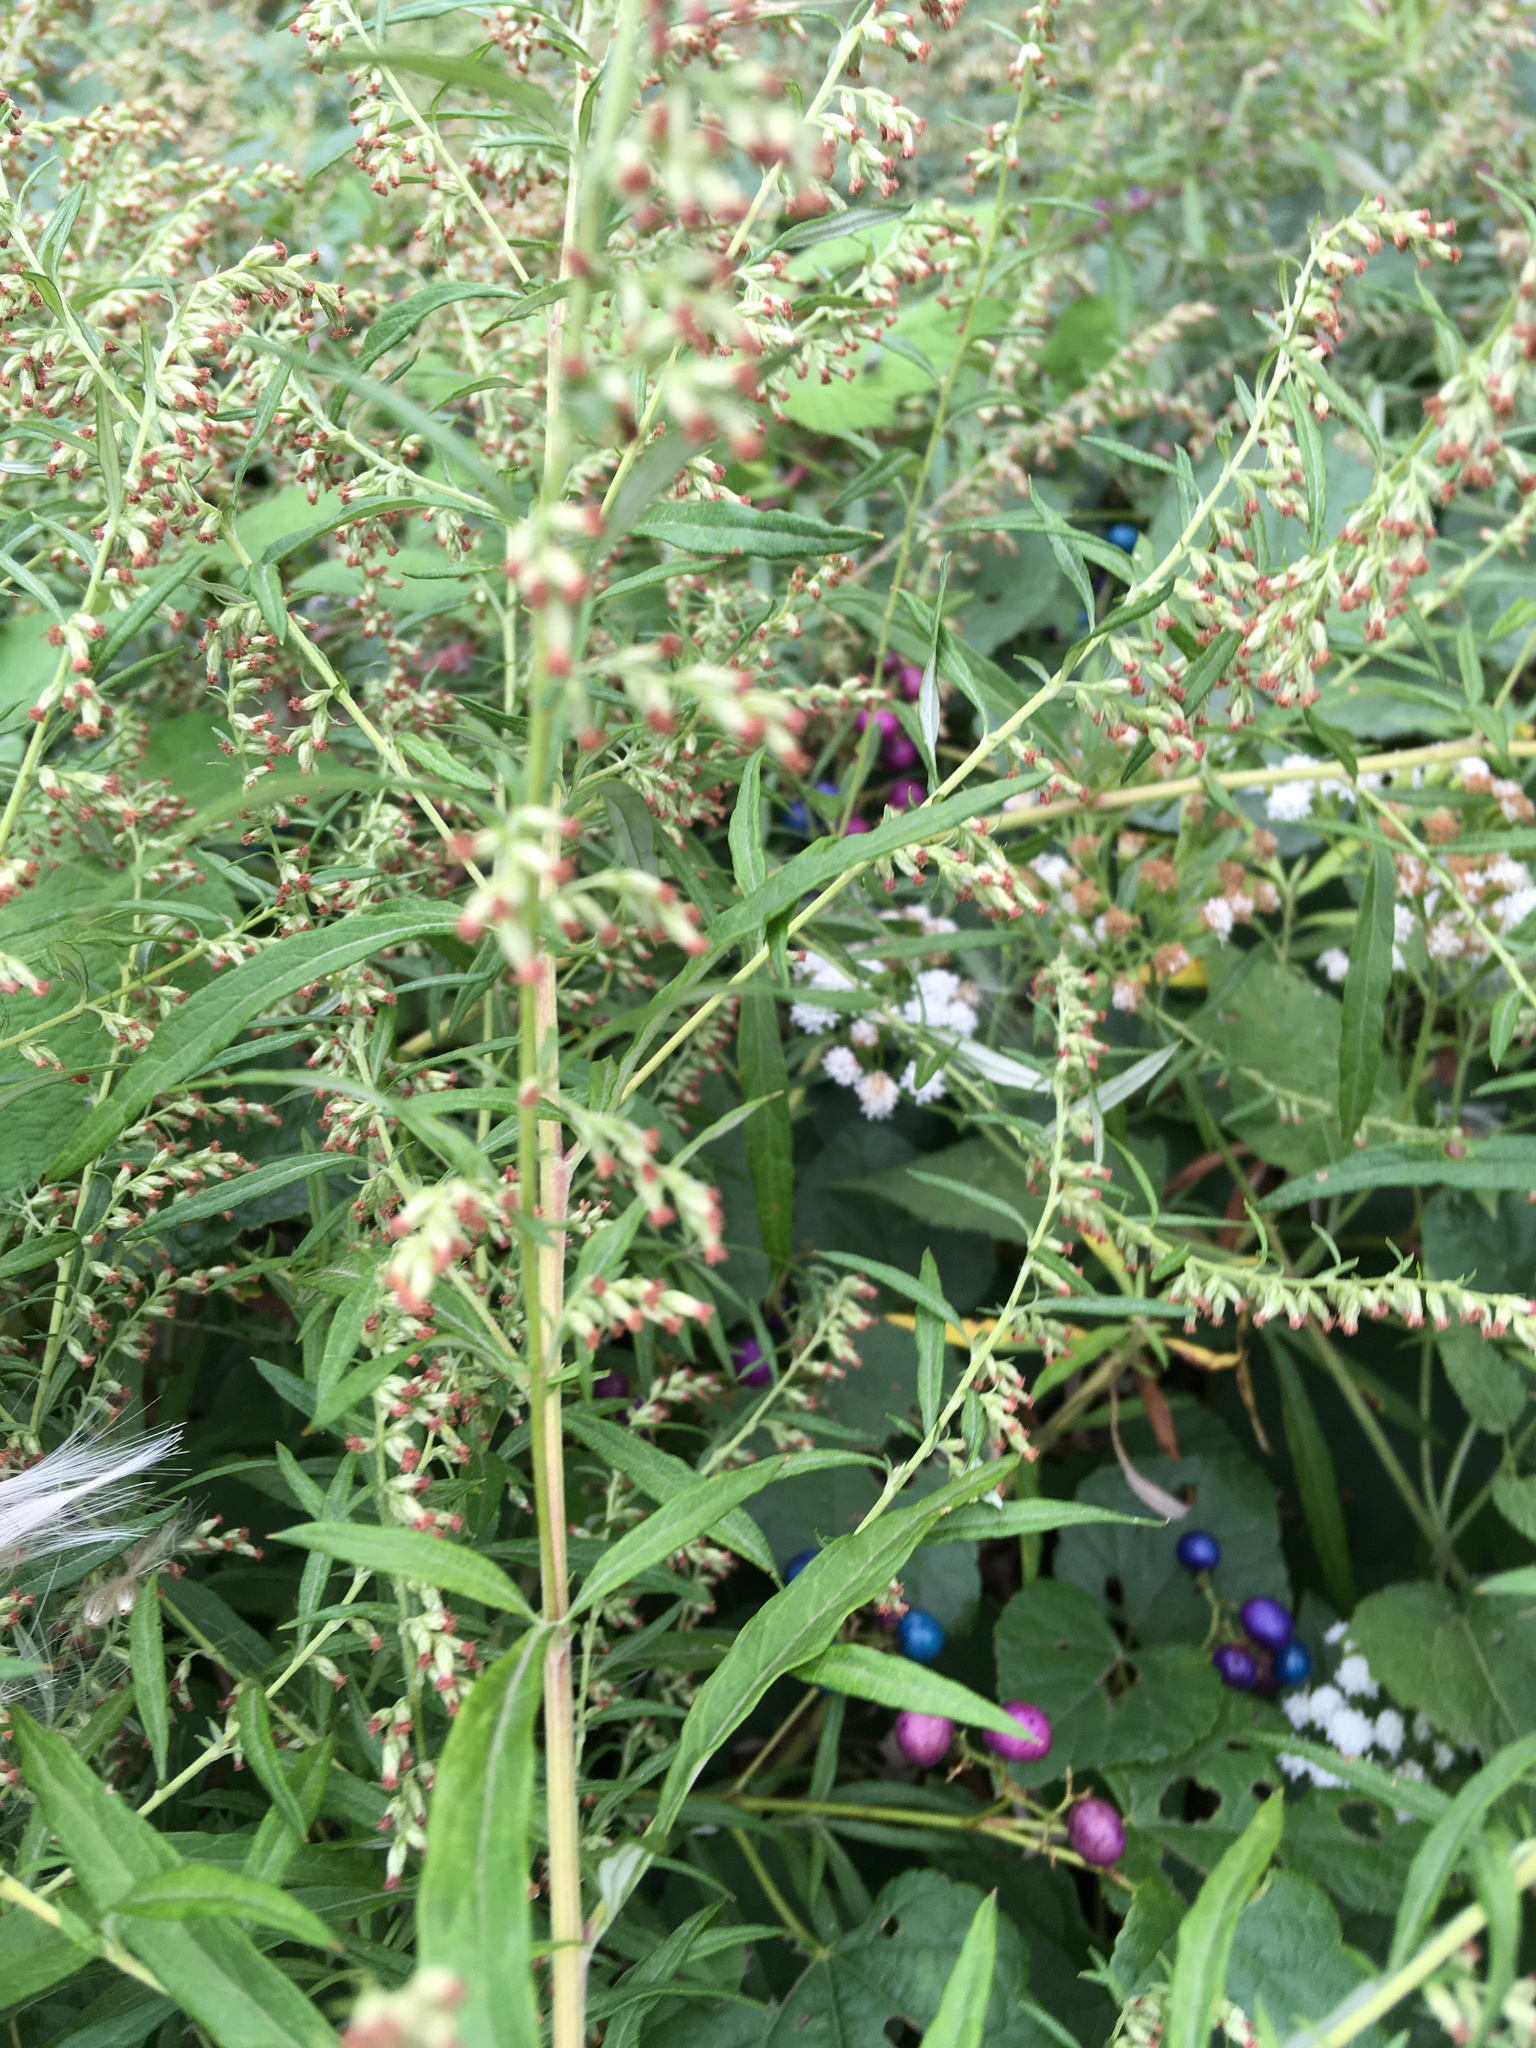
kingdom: Plantae
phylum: Tracheophyta
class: Magnoliopsida
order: Asterales
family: Asteraceae
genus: Artemisia
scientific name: Artemisia vulgaris
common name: Mugwort
